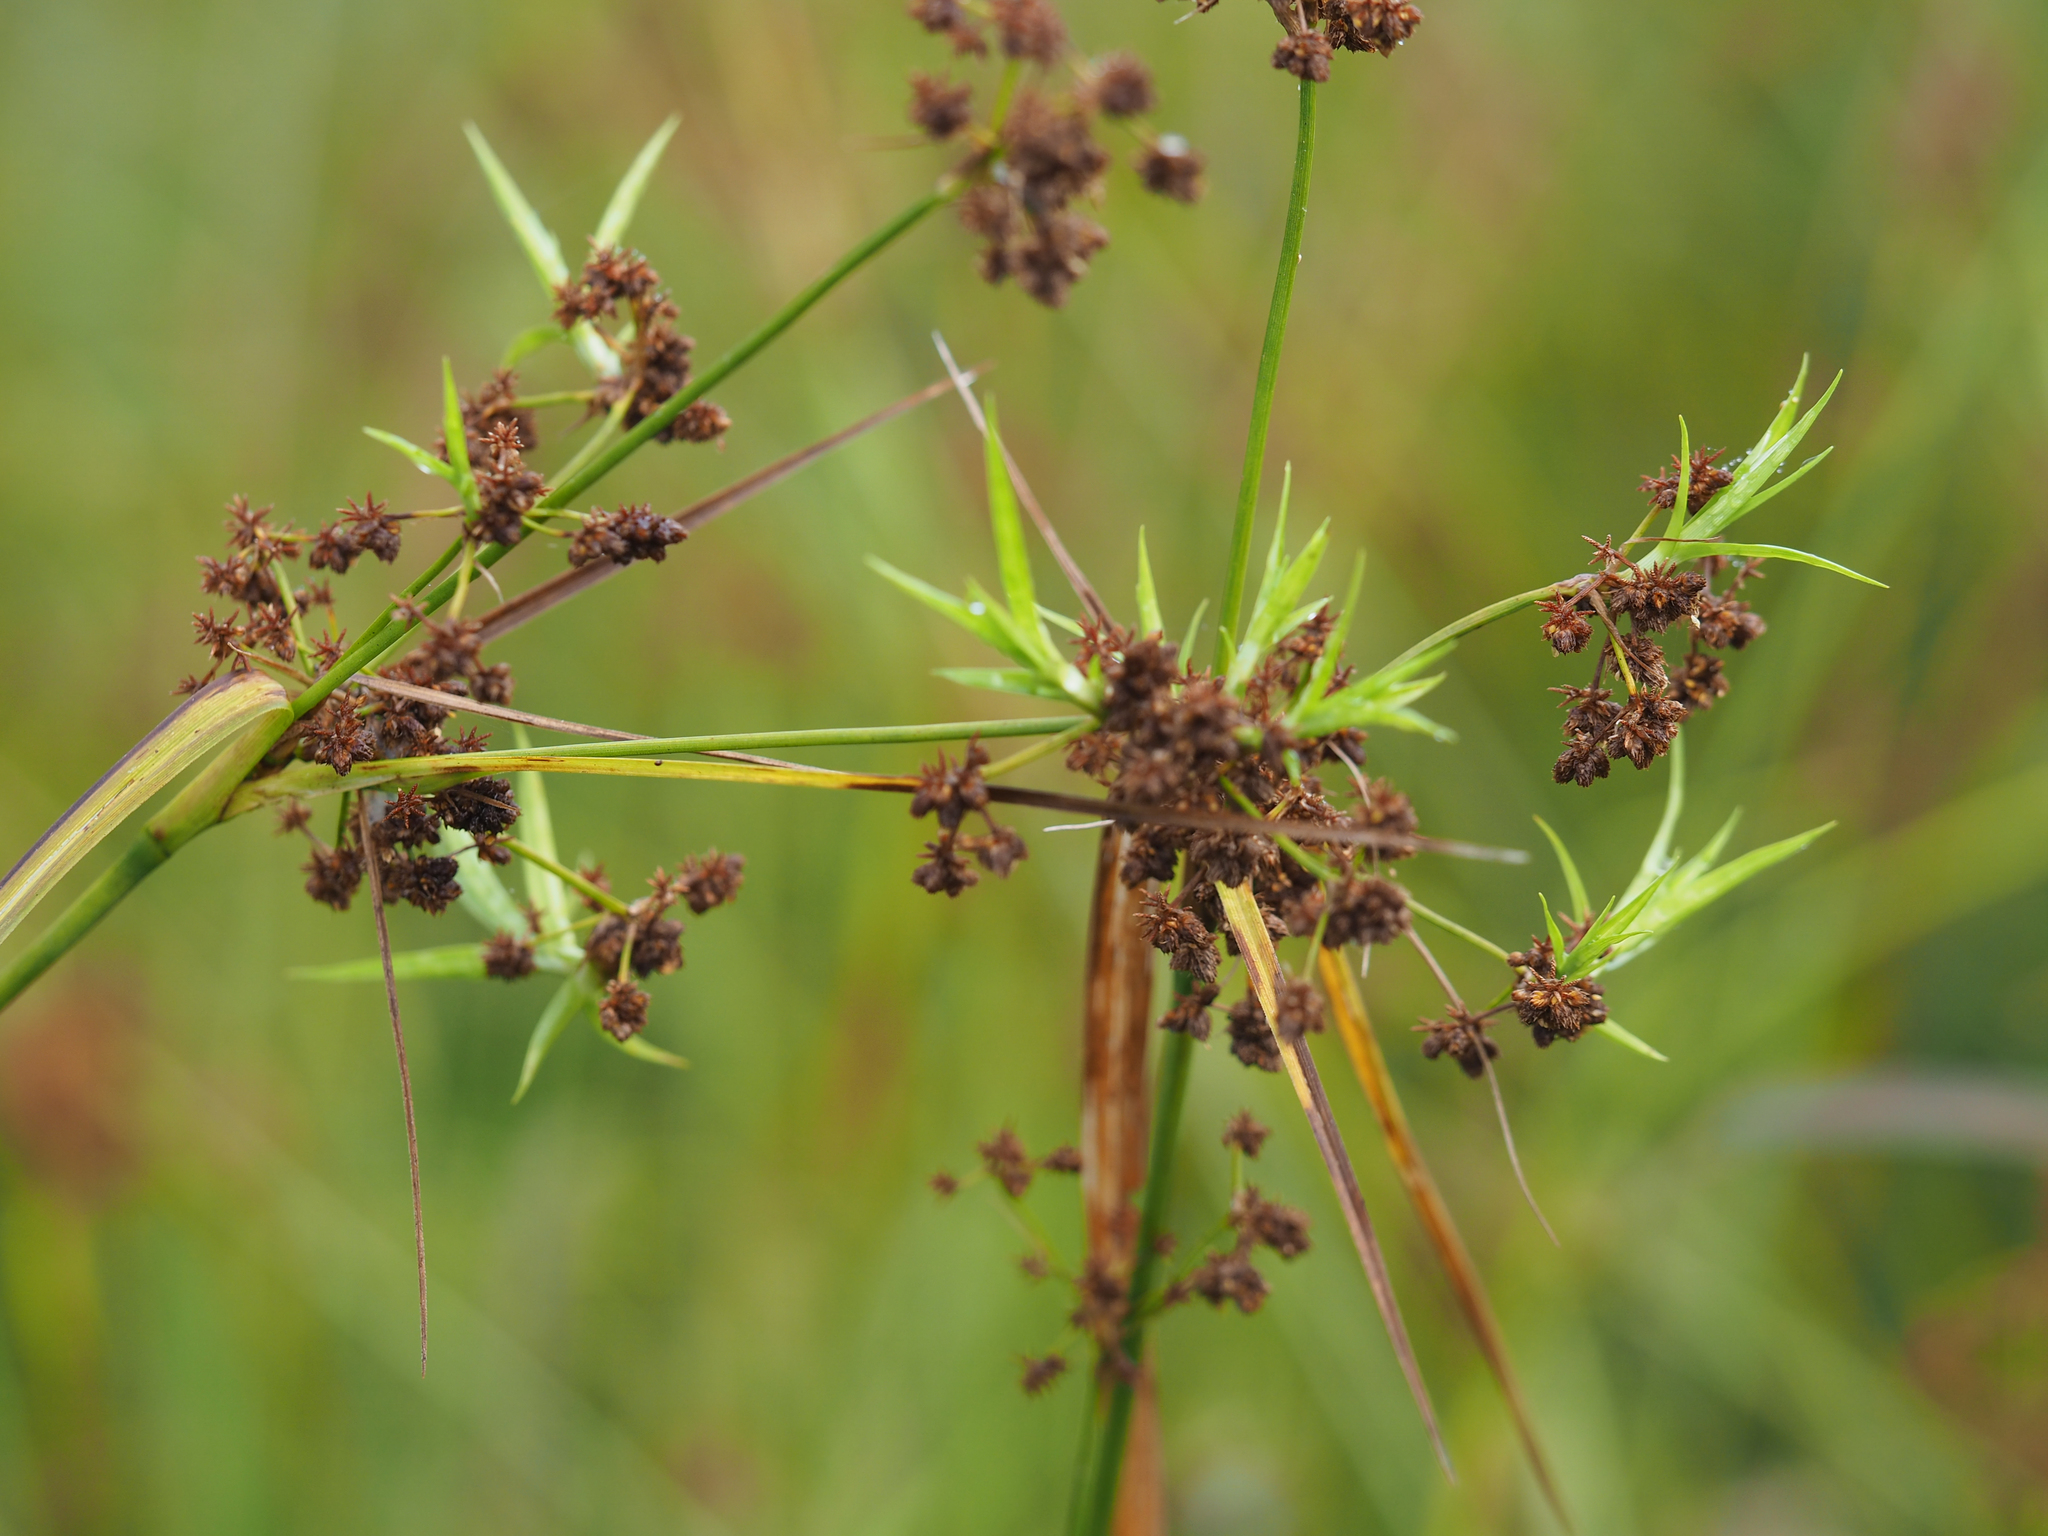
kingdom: Plantae
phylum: Tracheophyta
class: Liliopsida
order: Poales
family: Cyperaceae
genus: Scirpus
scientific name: Scirpus georgianus
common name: Bristleless dark-green bulrush
